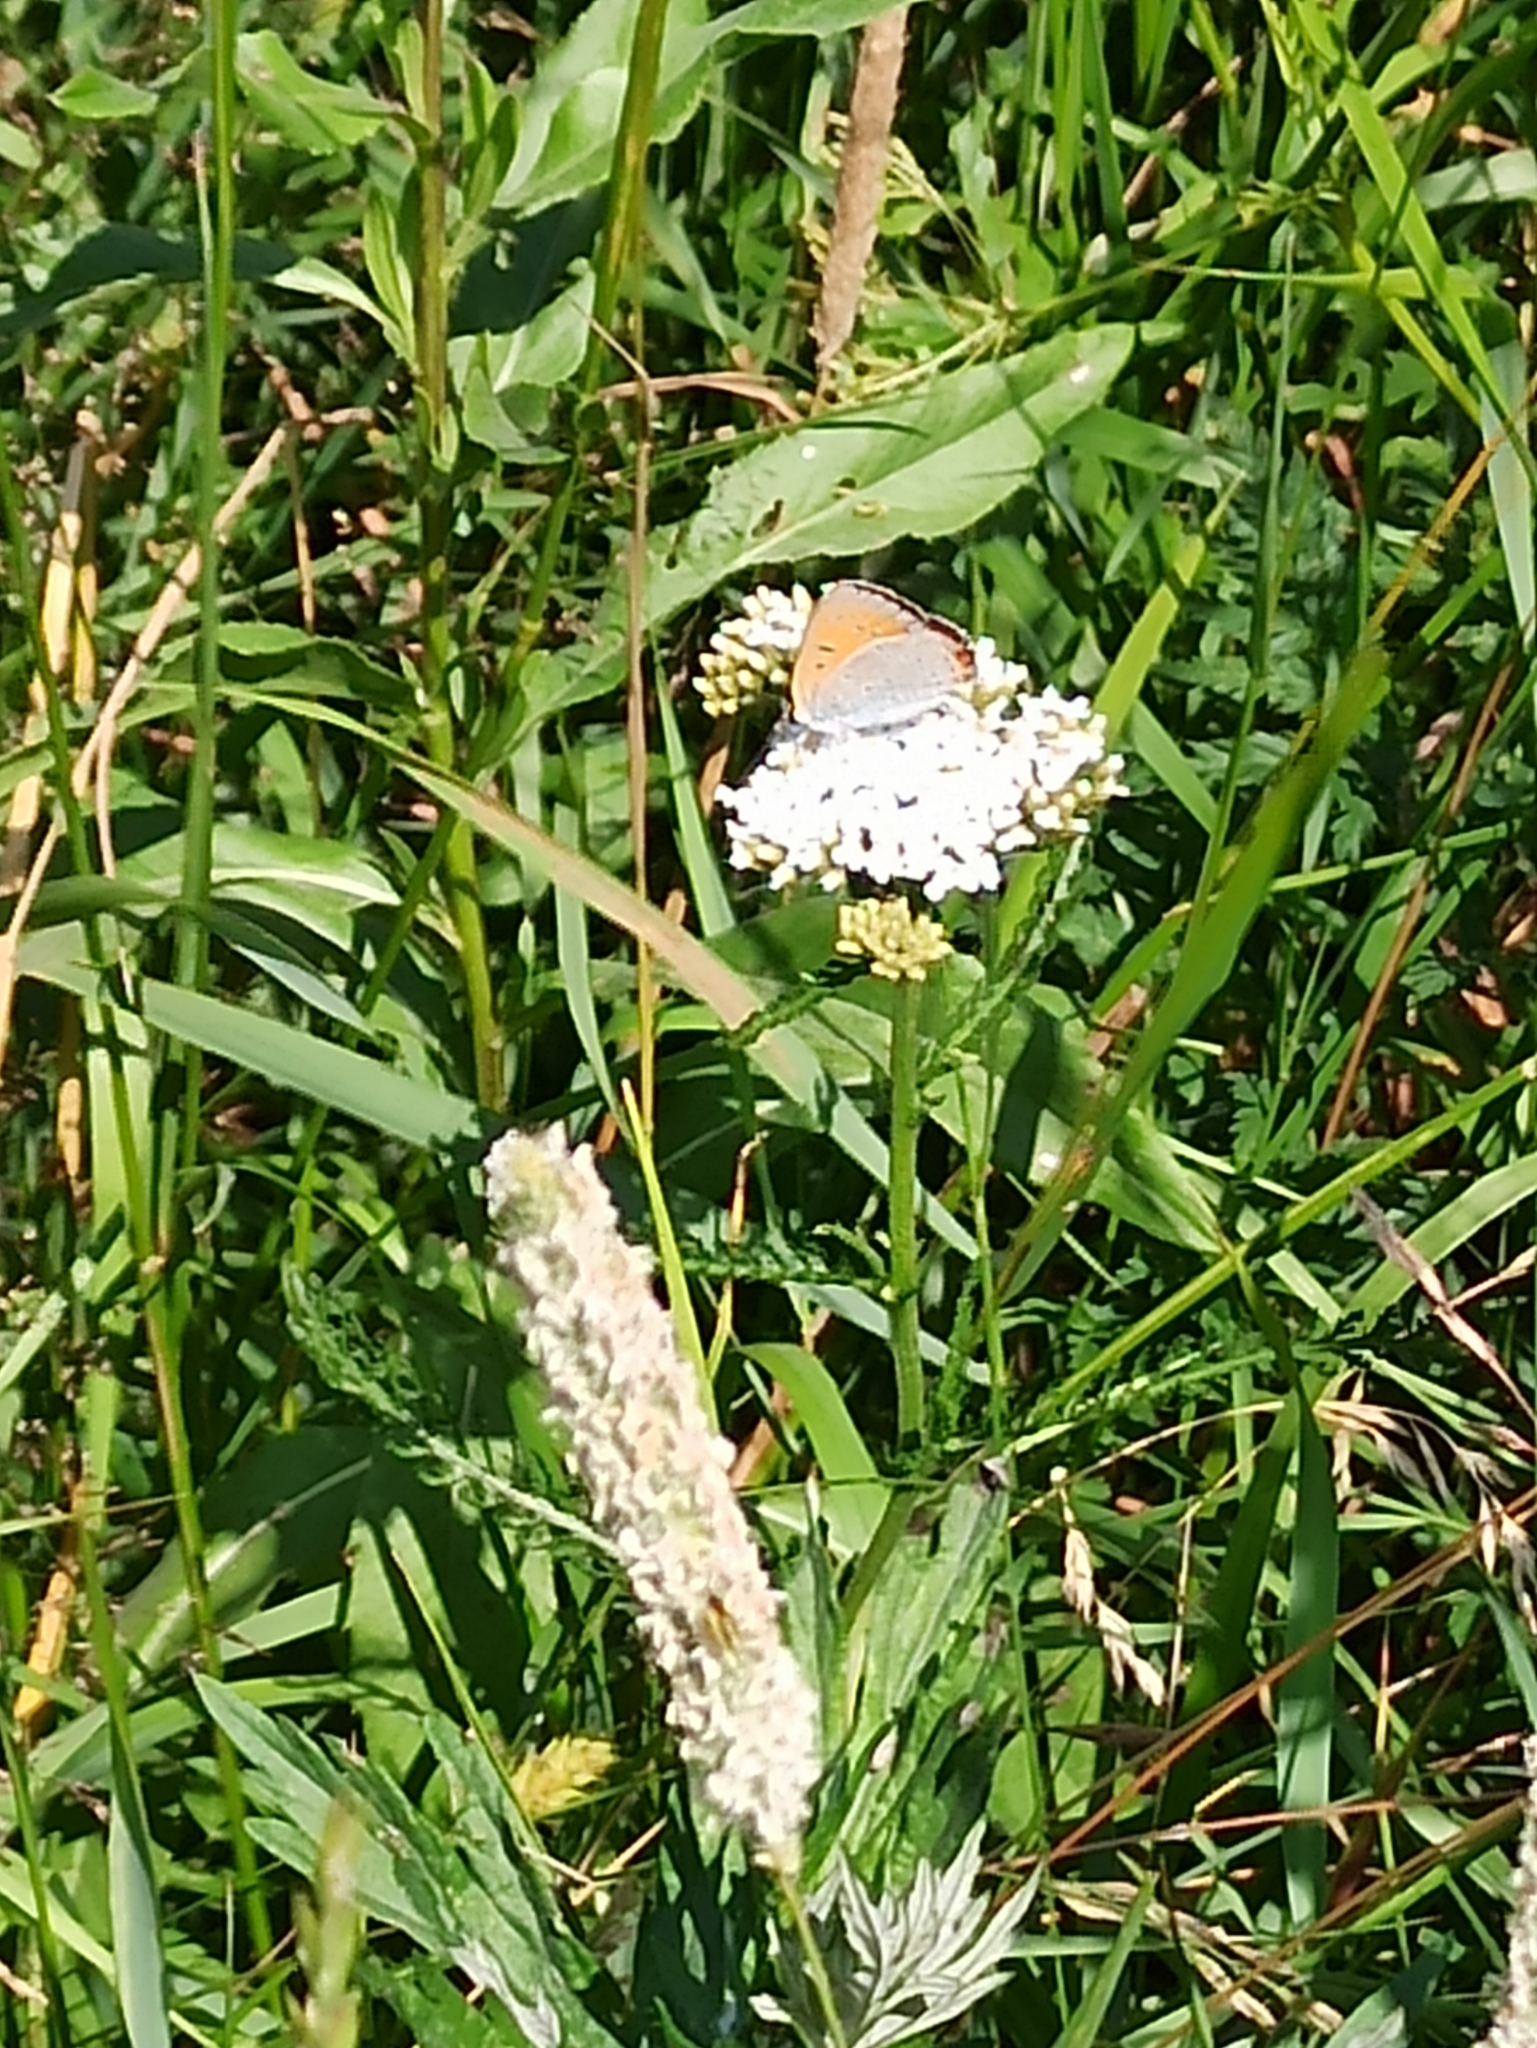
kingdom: Animalia
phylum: Arthropoda
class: Insecta
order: Lepidoptera
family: Lycaenidae
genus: Lycaena
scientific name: Lycaena dispar
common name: Large copper
